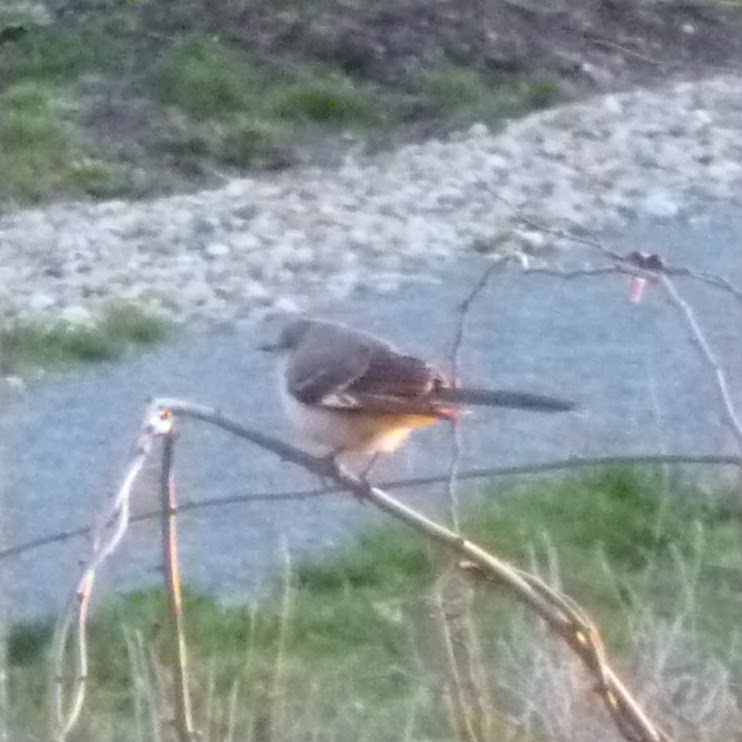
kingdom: Animalia
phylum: Chordata
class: Aves
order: Passeriformes
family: Mimidae
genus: Mimus
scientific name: Mimus polyglottos
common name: Northern mockingbird
